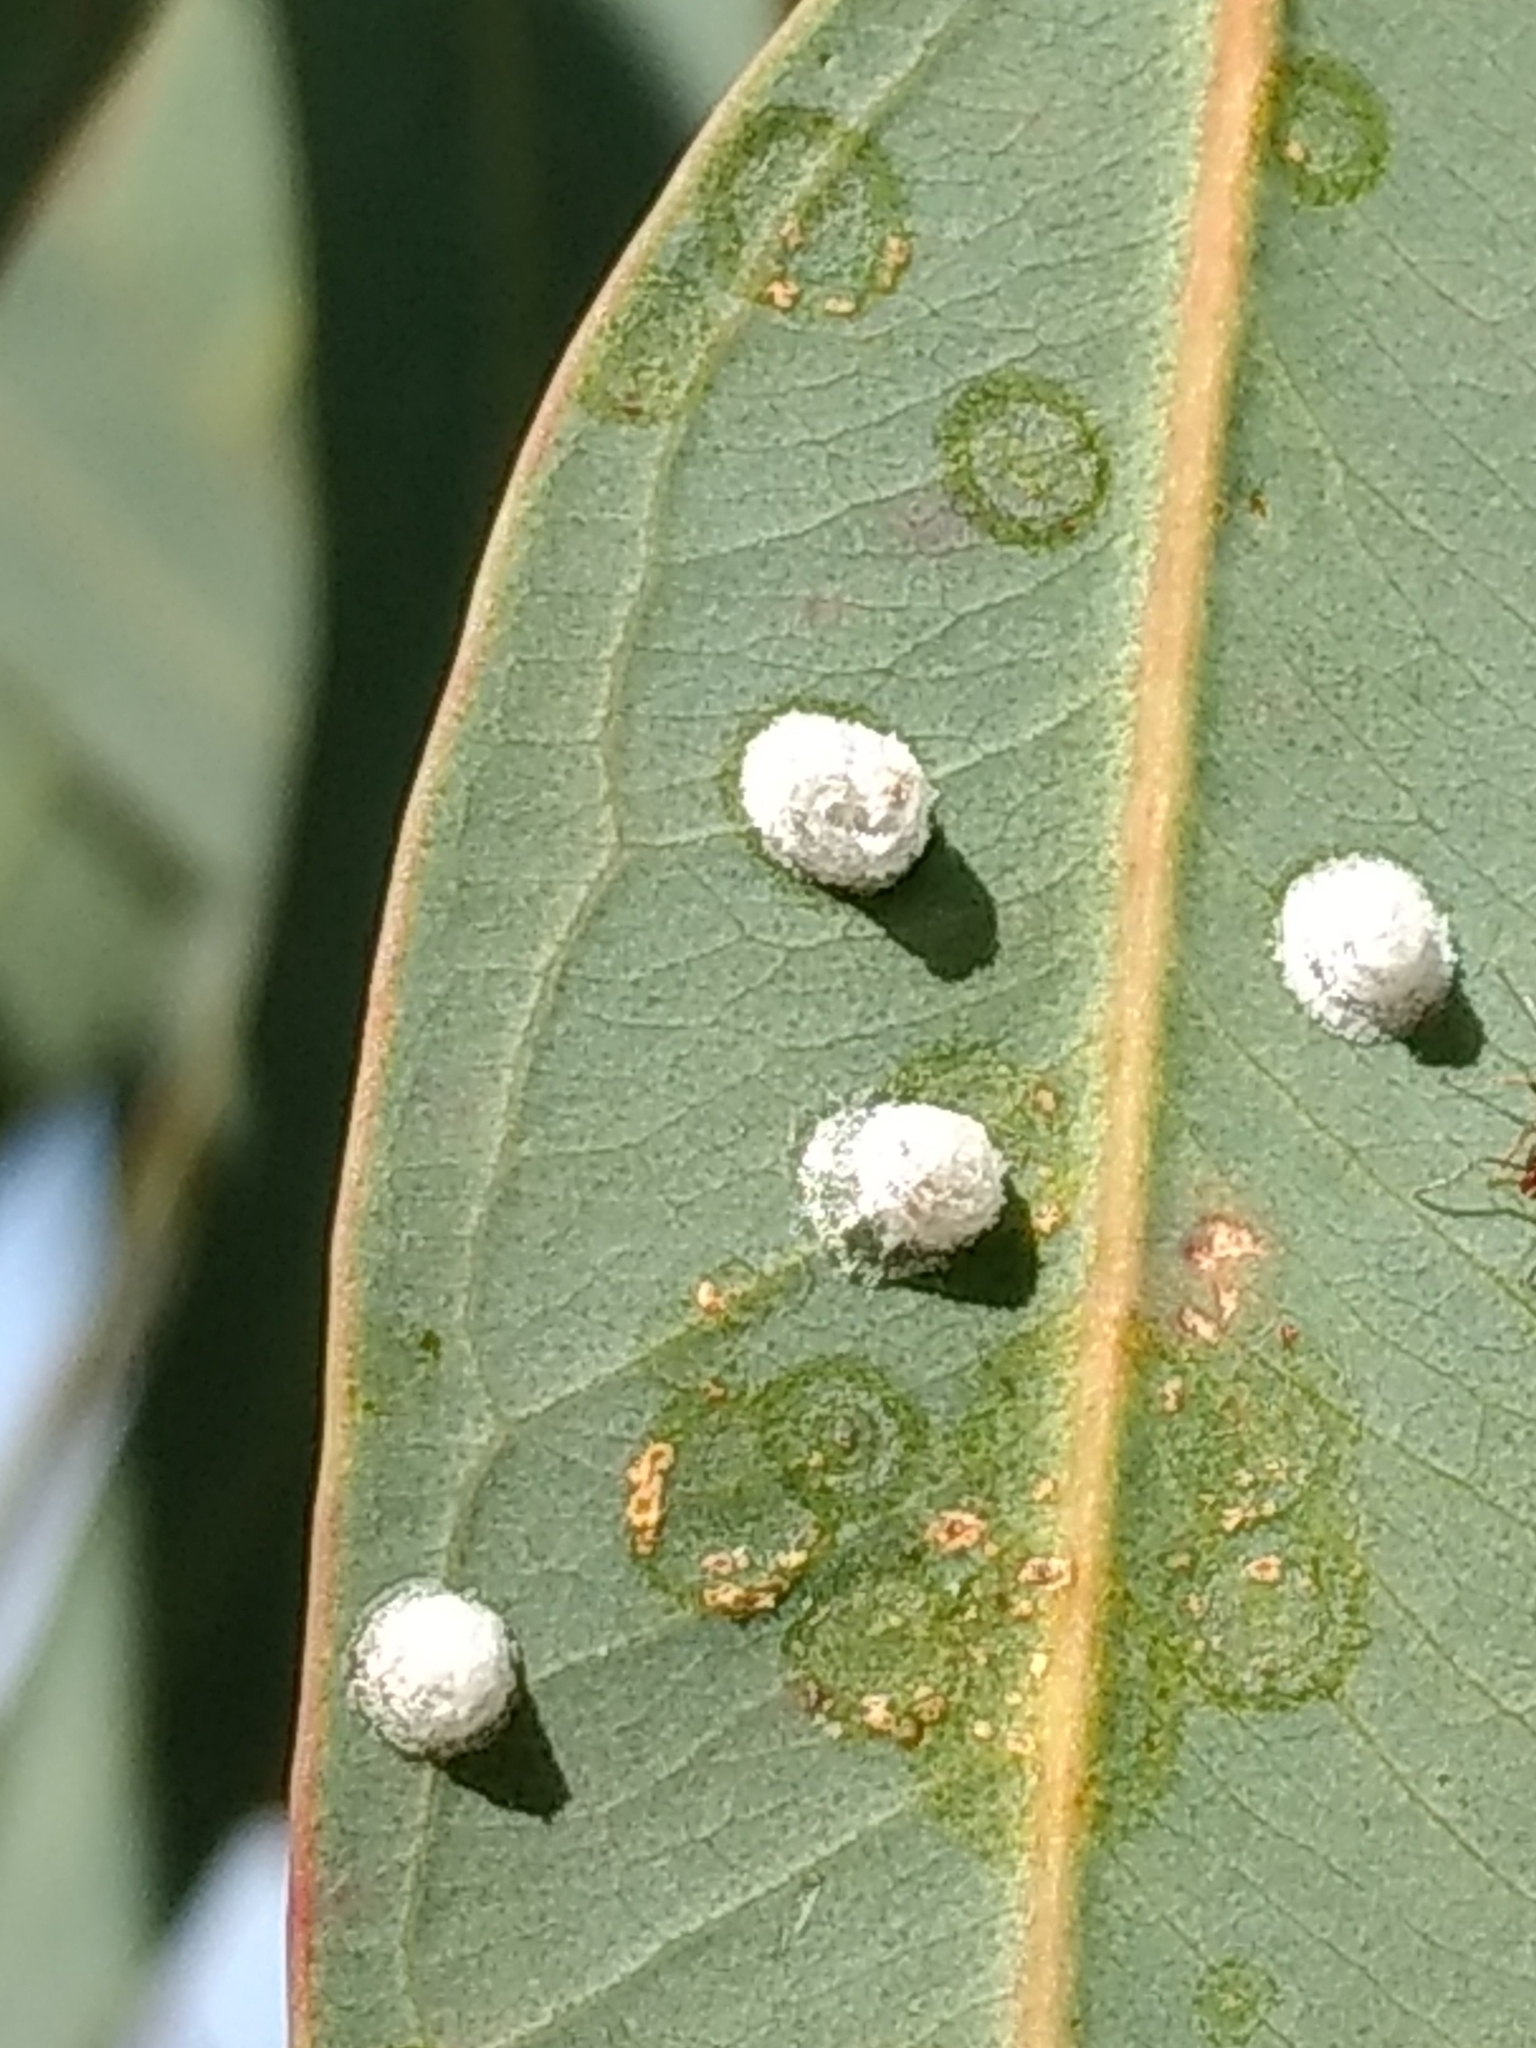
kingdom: Animalia
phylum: Arthropoda
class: Insecta
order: Hemiptera
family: Aphalaridae
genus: Glycaspis
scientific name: Glycaspis brimblecombei
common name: Red gum lerp psyllid
